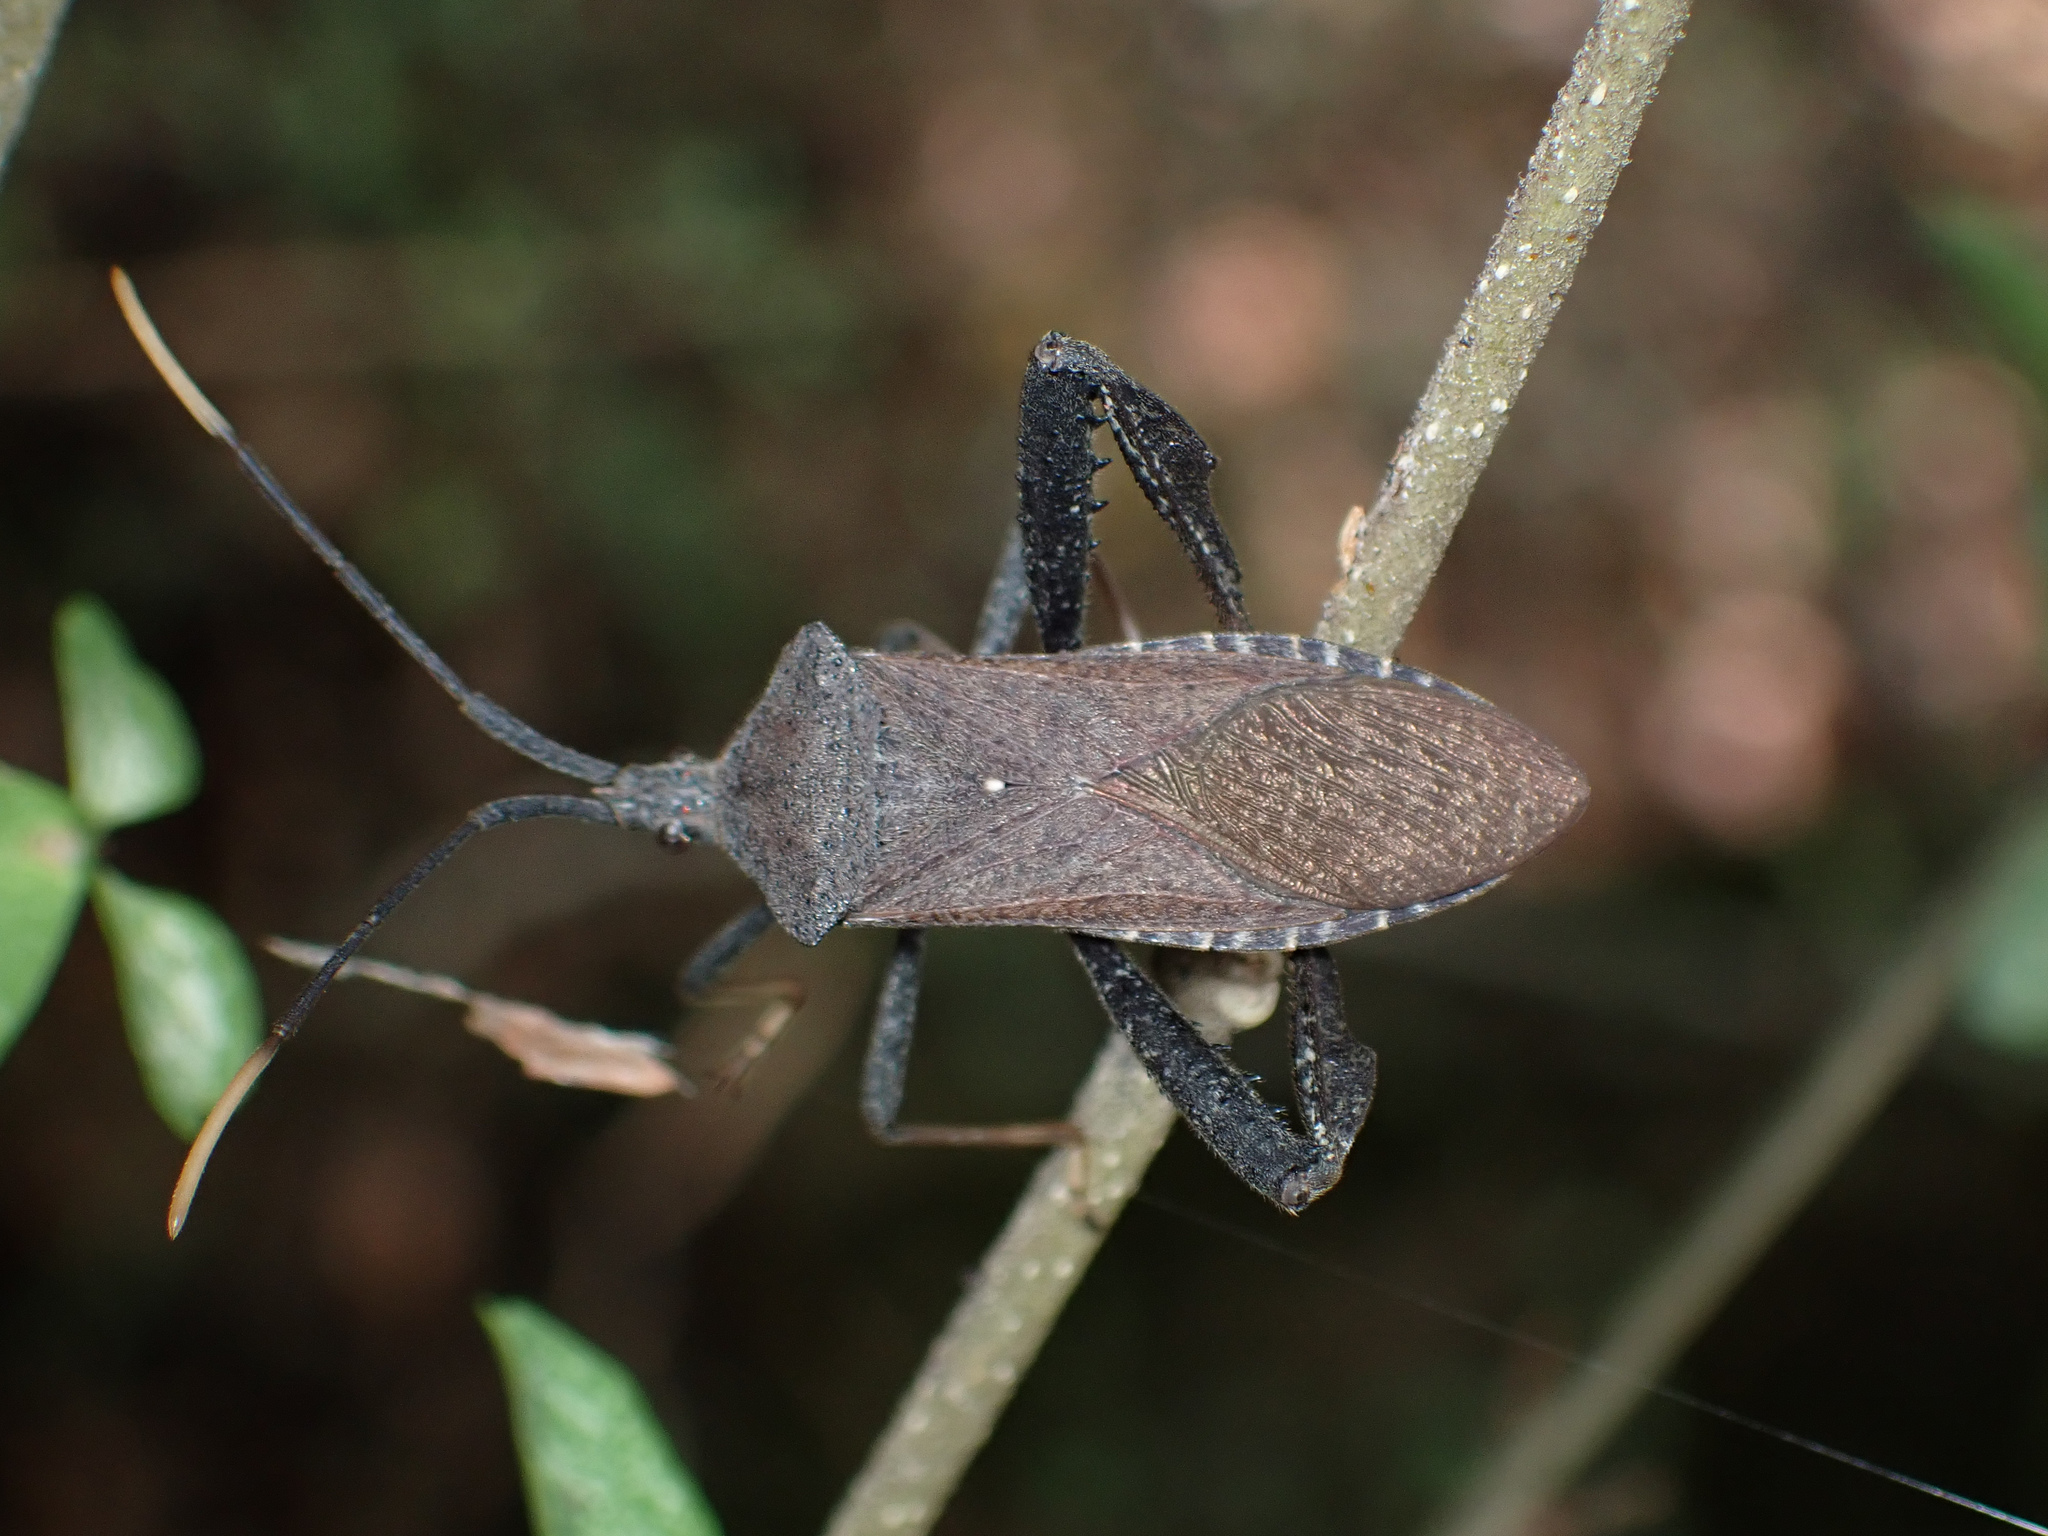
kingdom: Animalia
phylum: Arthropoda
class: Insecta
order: Hemiptera
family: Coreidae
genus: Acanthocephala
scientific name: Acanthocephala terminalis
